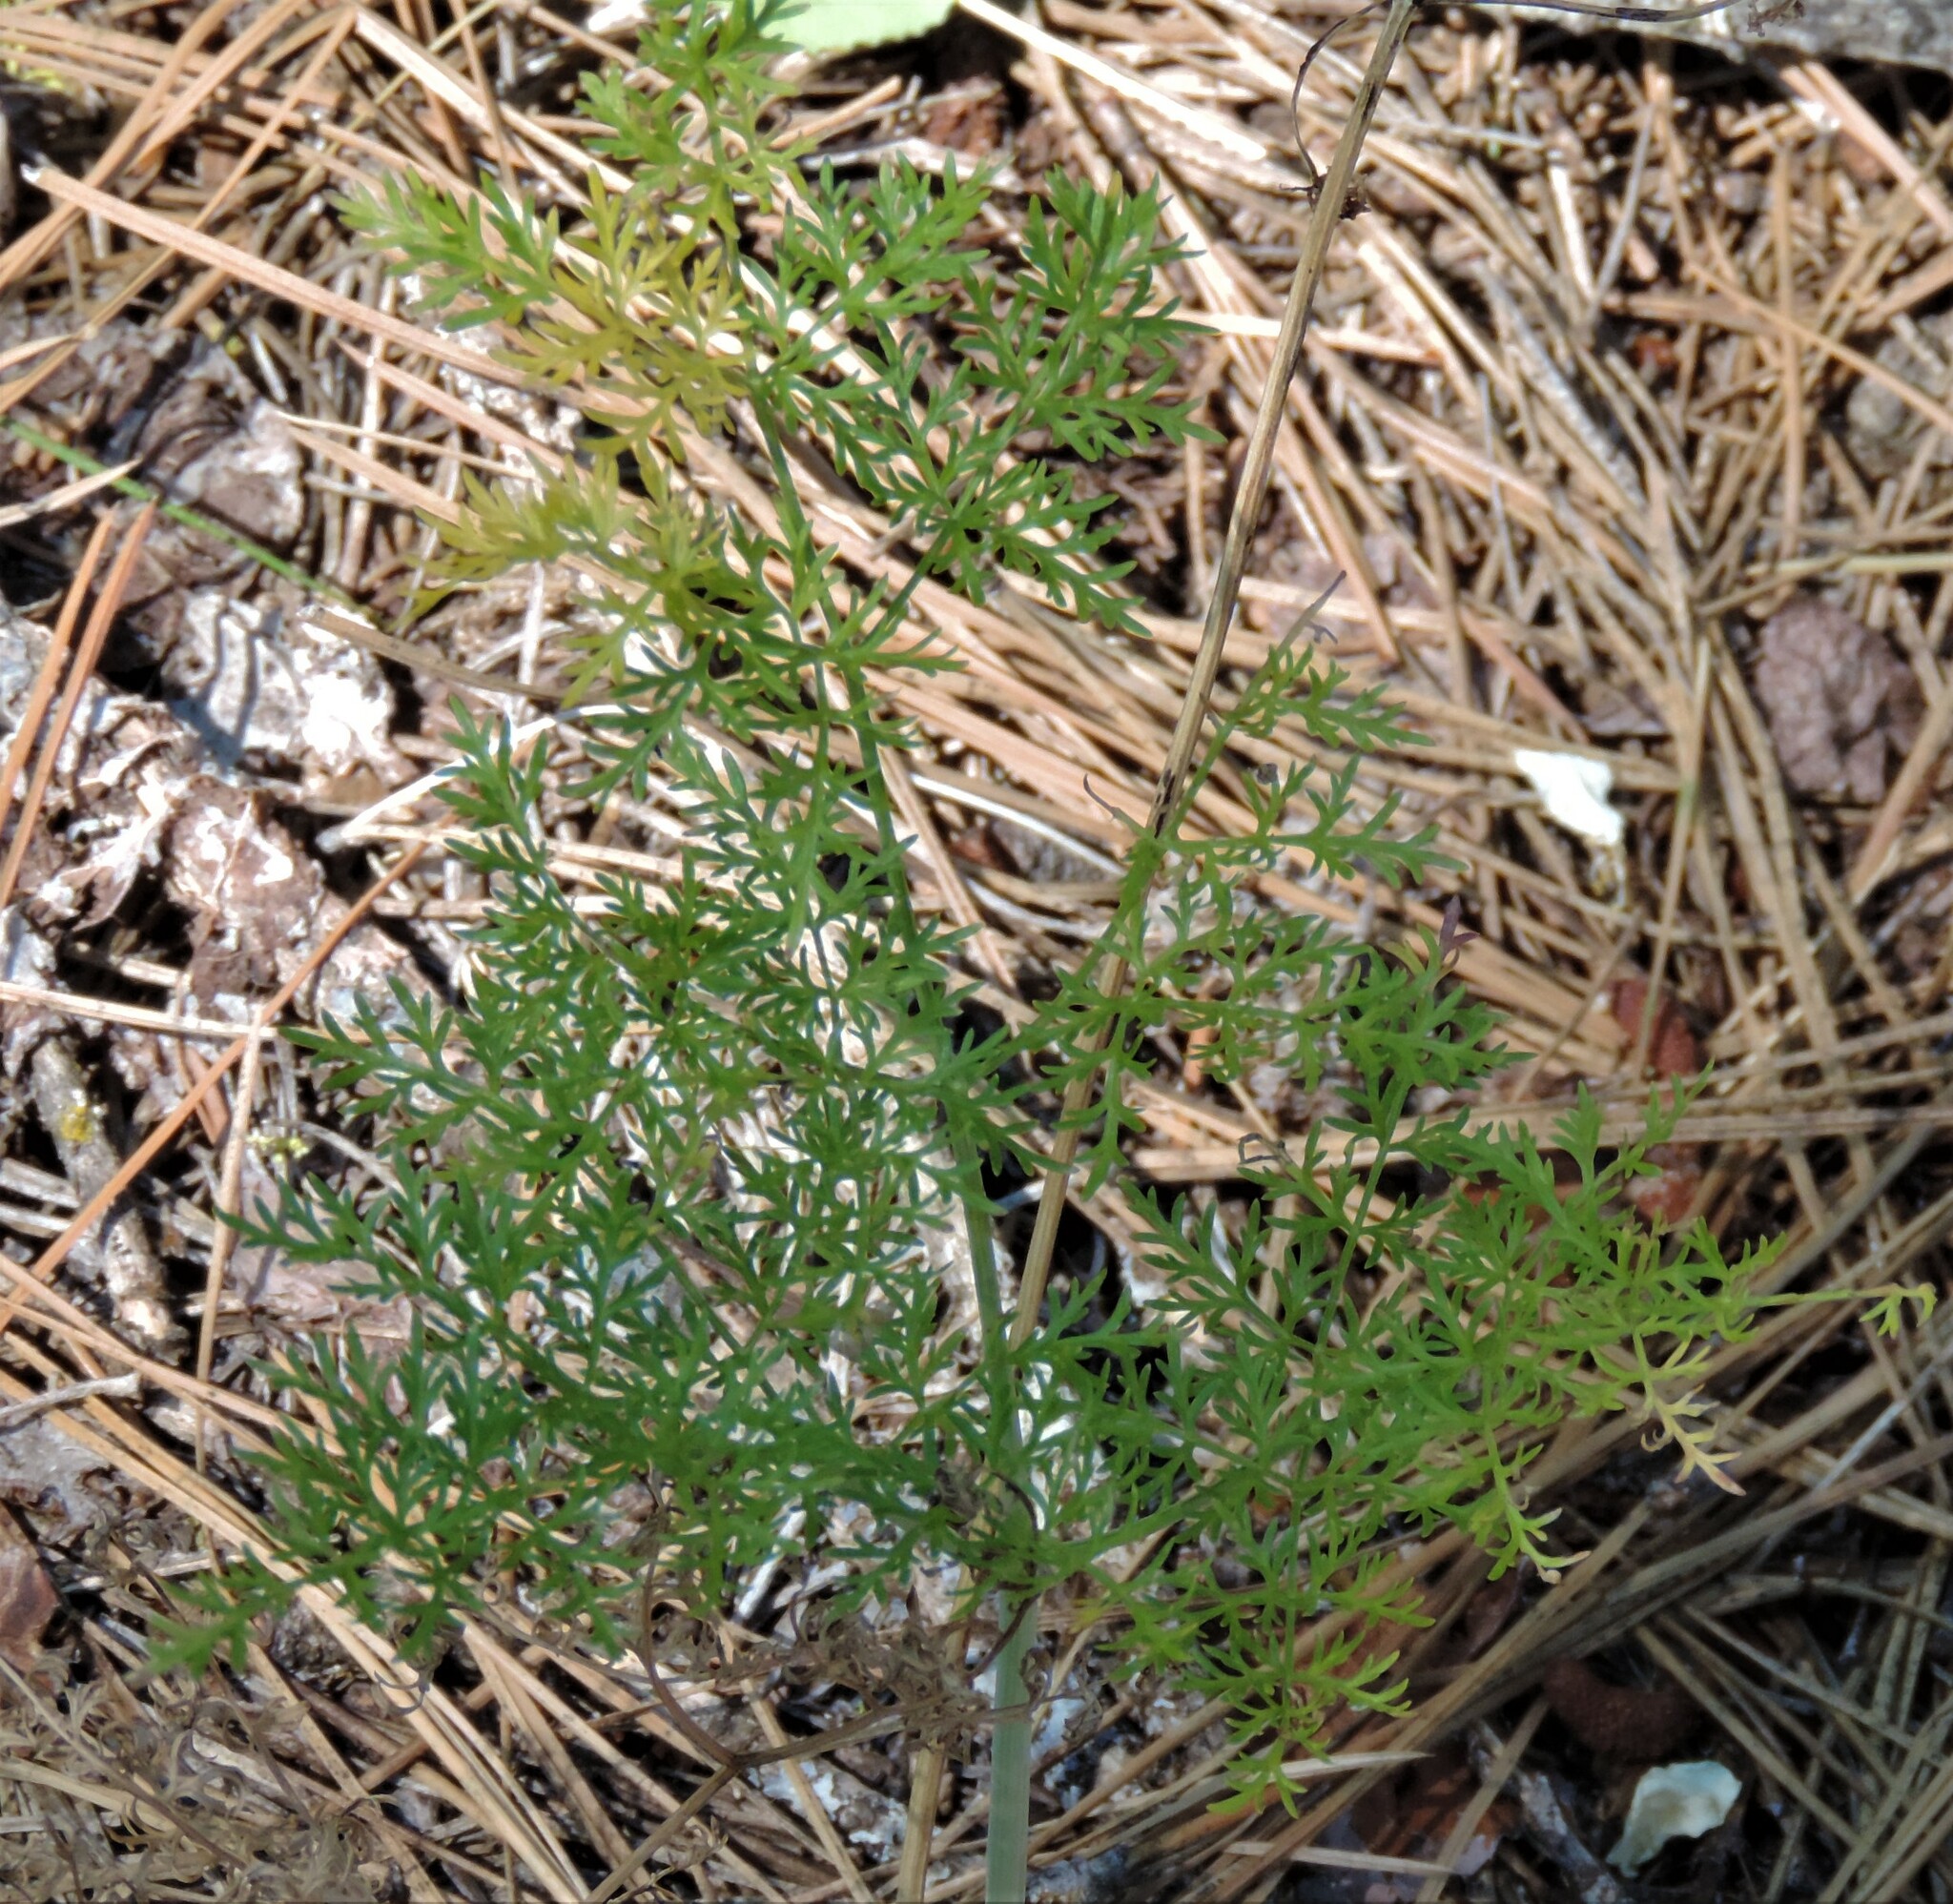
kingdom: Plantae
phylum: Tracheophyta
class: Magnoliopsida
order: Apiales
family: Apiaceae
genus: Lomatium
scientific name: Lomatium multifidum
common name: Carrot-leaved biscuitroot
